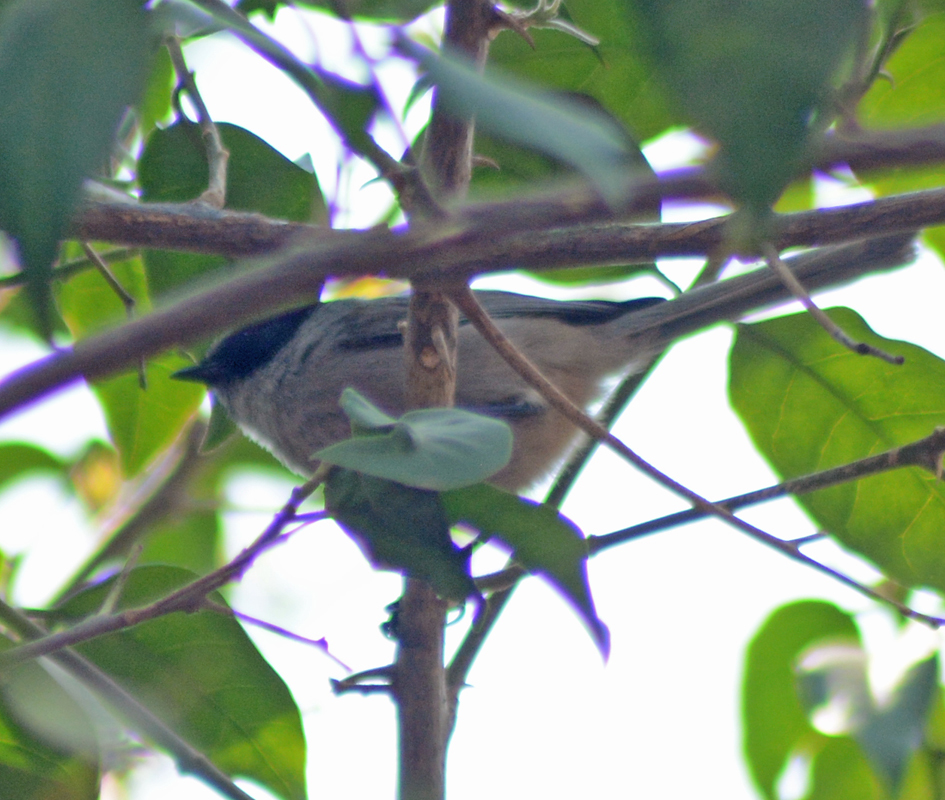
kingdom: Animalia
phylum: Chordata
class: Aves
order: Passeriformes
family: Aegithalidae
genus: Psaltriparus
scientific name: Psaltriparus minimus
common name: American bushtit
